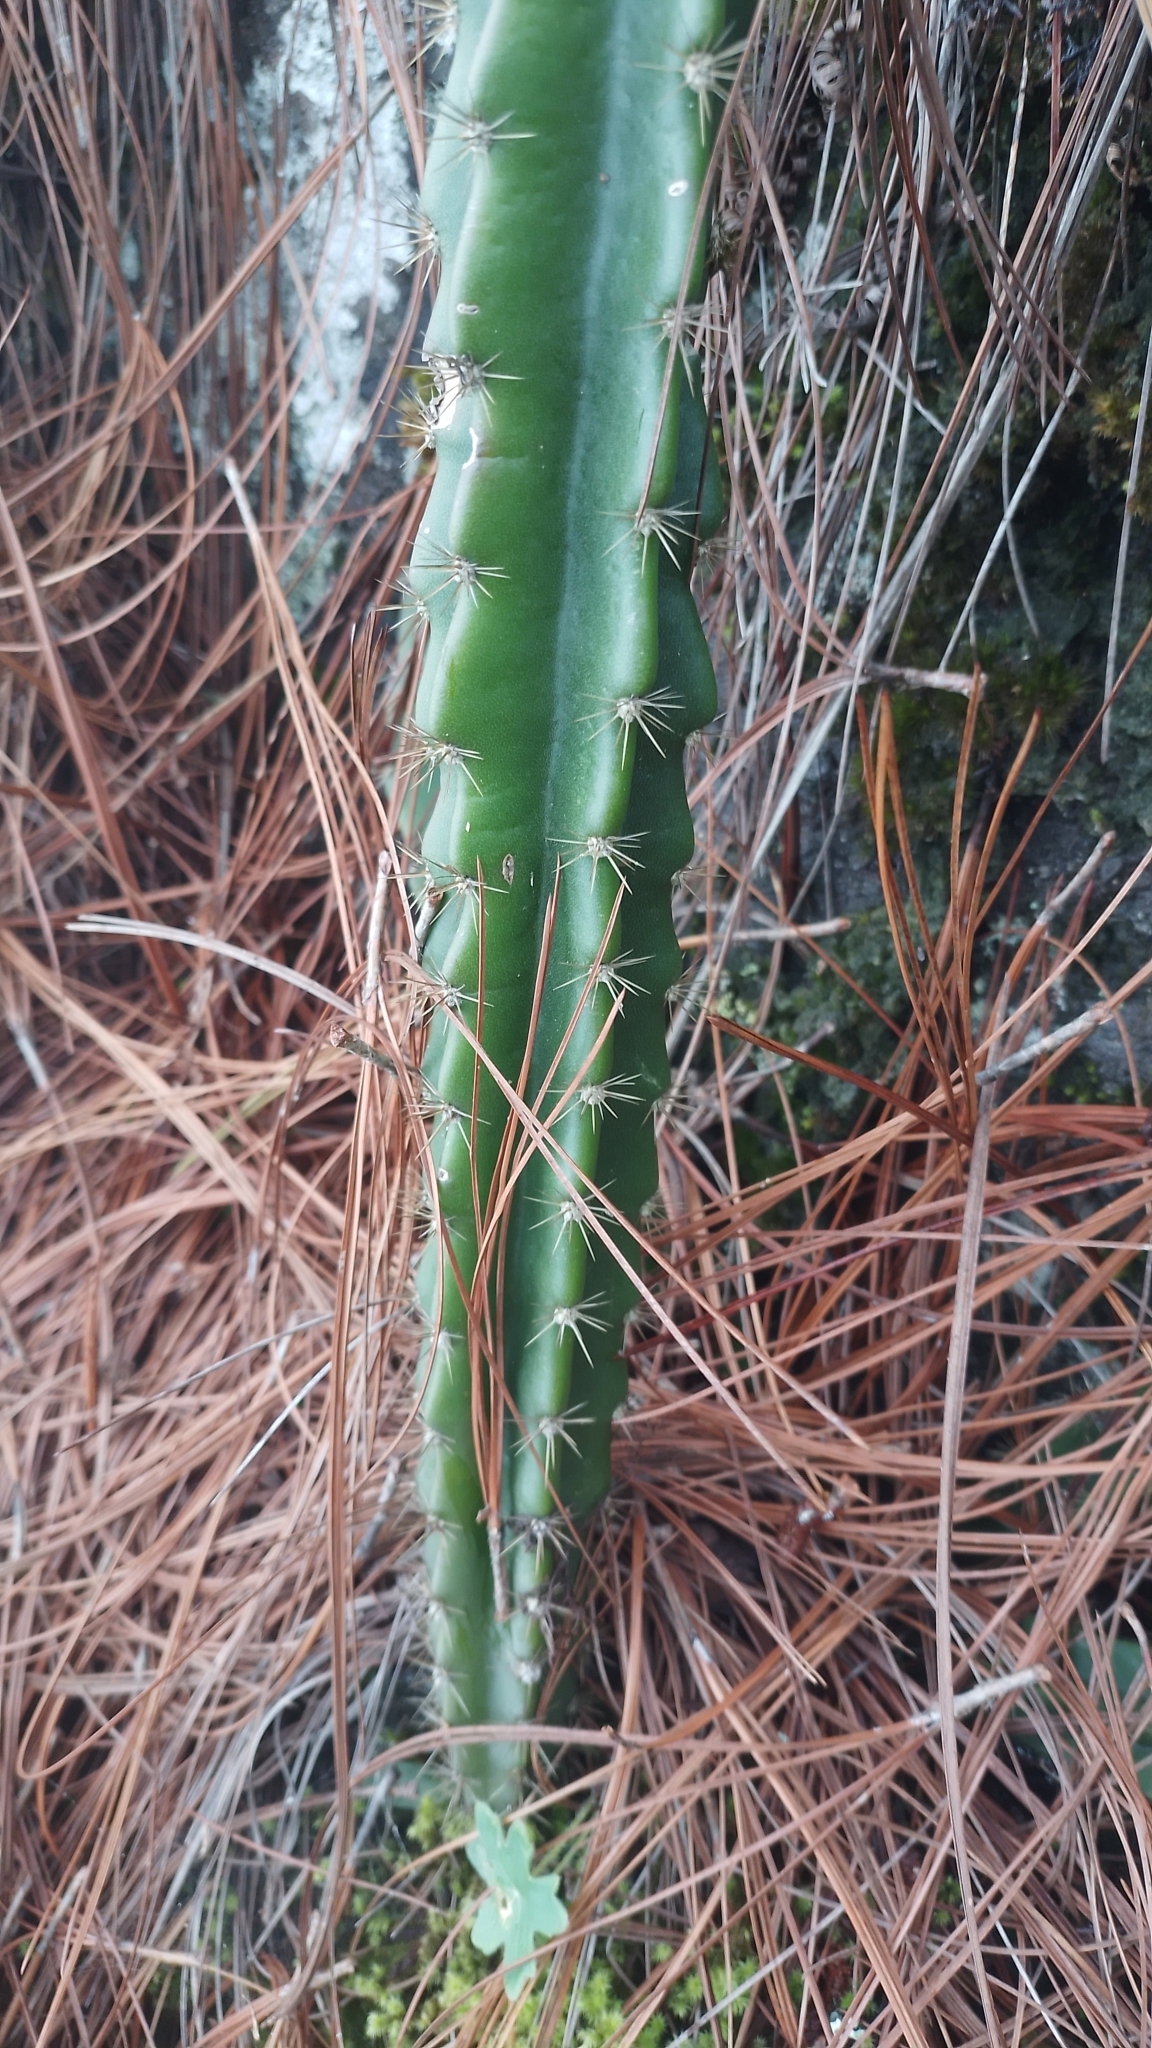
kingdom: Plantae
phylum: Tracheophyta
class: Magnoliopsida
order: Caryophyllales
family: Cactaceae
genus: Disocactus
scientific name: Disocactus speciosus
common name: Sun cereus
